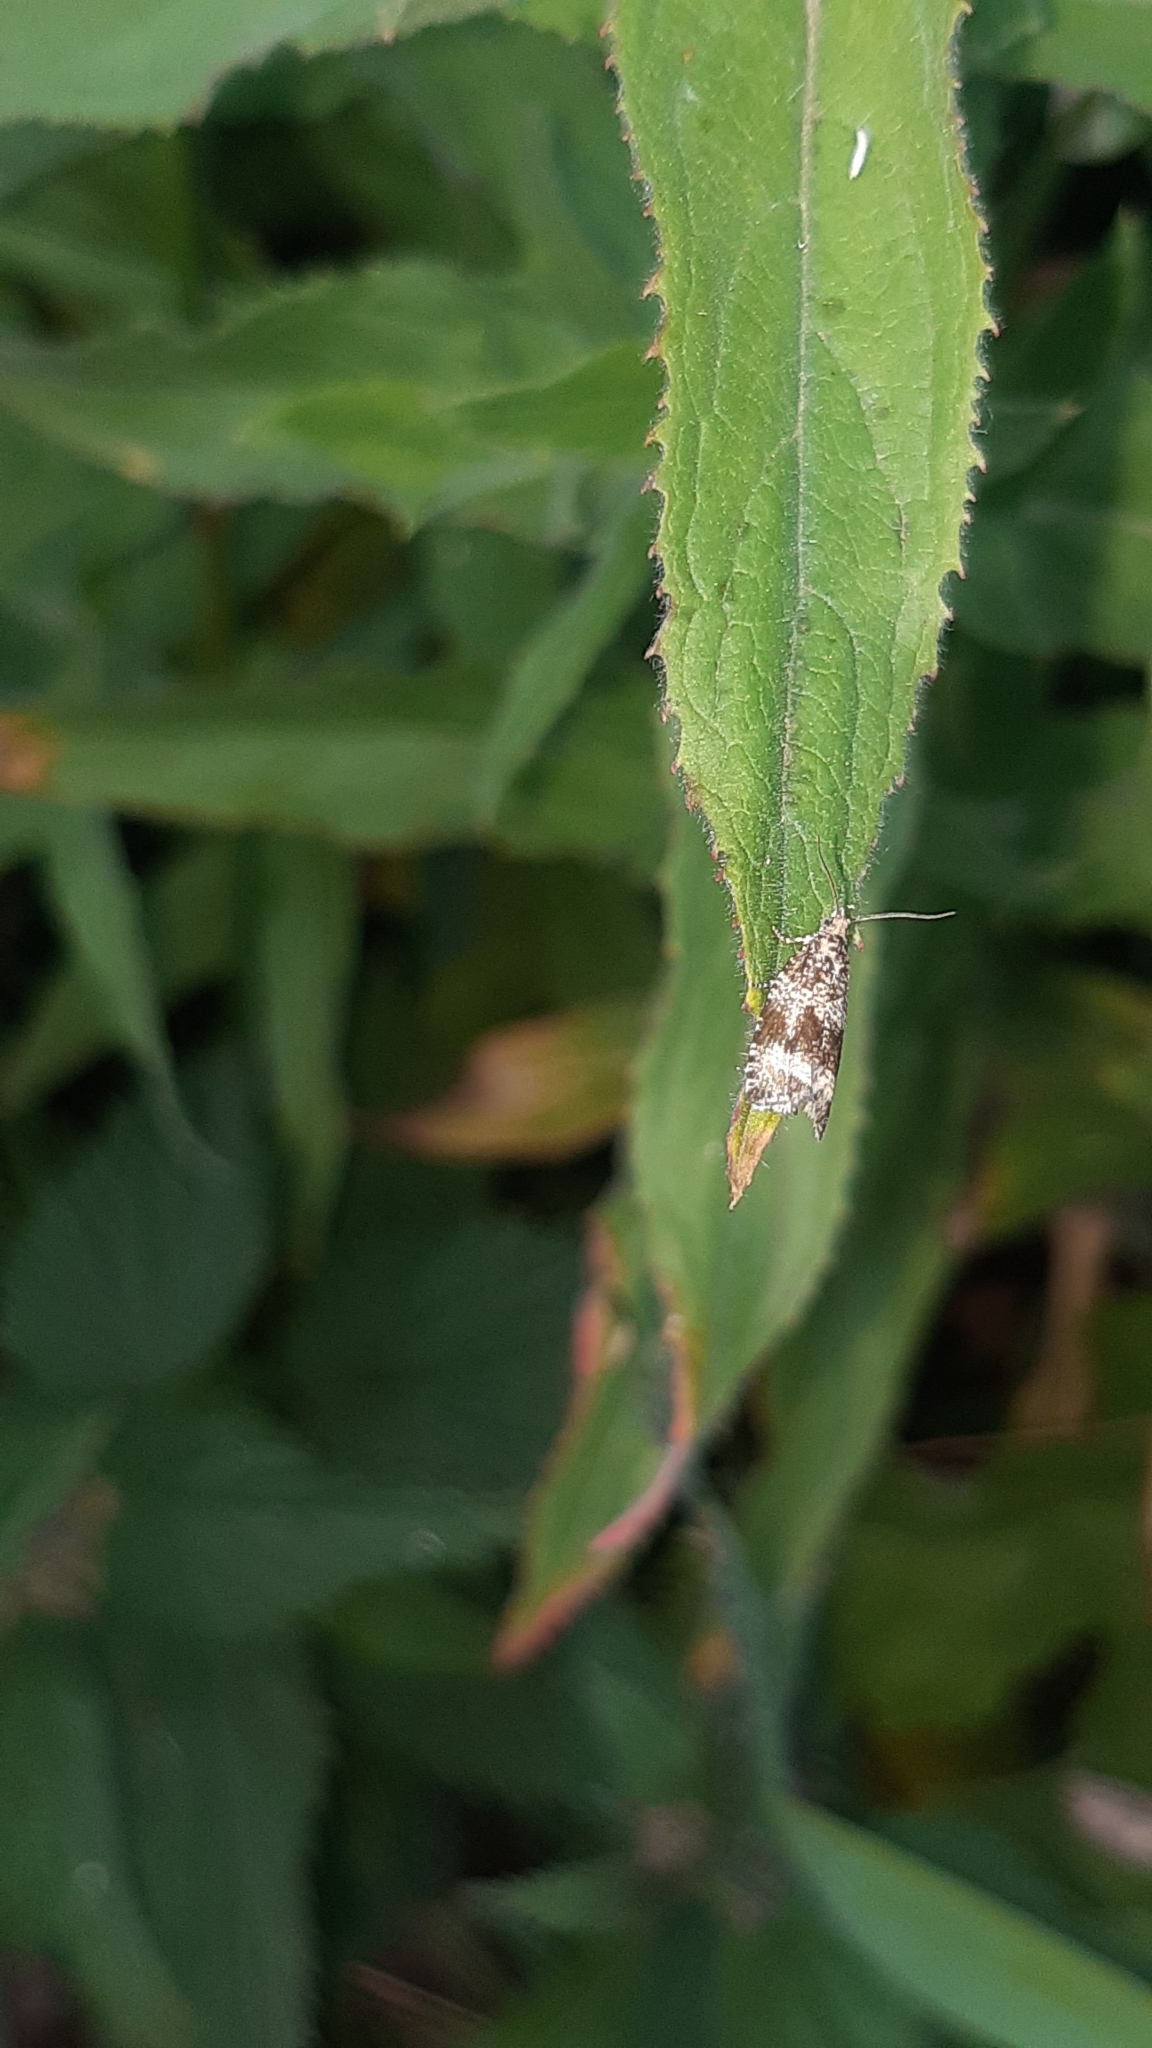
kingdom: Animalia
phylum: Arthropoda
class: Insecta
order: Lepidoptera
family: Tortricidae
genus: Syricoris
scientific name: Syricoris lacunana
